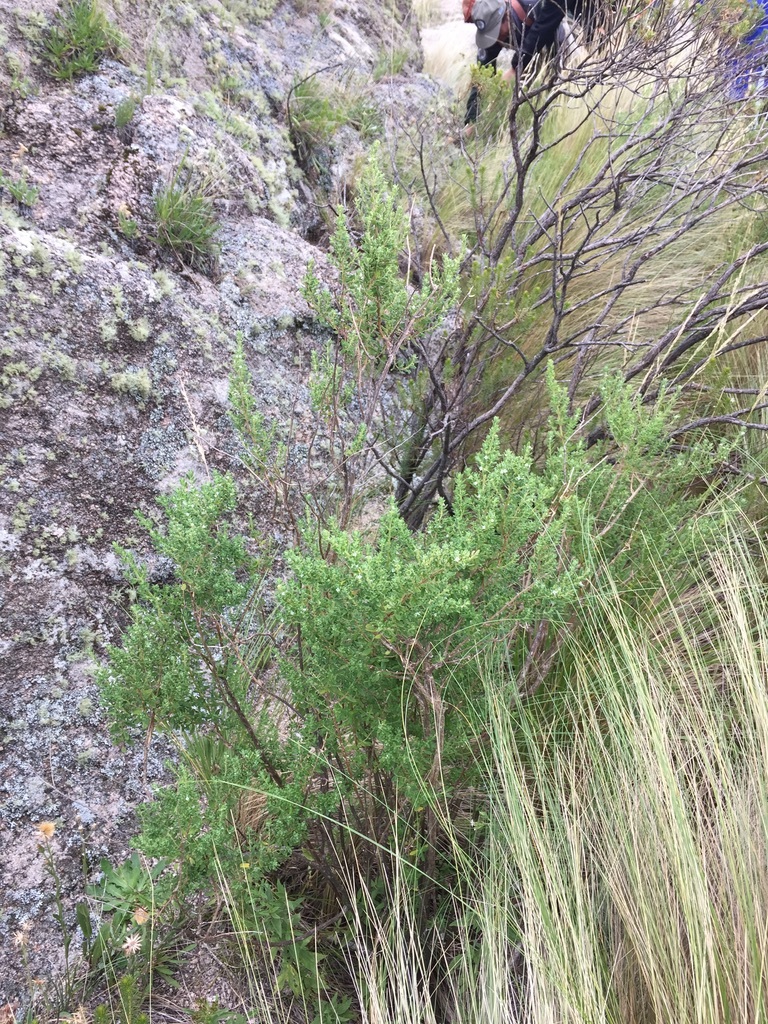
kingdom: Plantae
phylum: Tracheophyta
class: Magnoliopsida
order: Lamiales
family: Lamiaceae
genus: Clinopodium
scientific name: Clinopodium gilliesii
